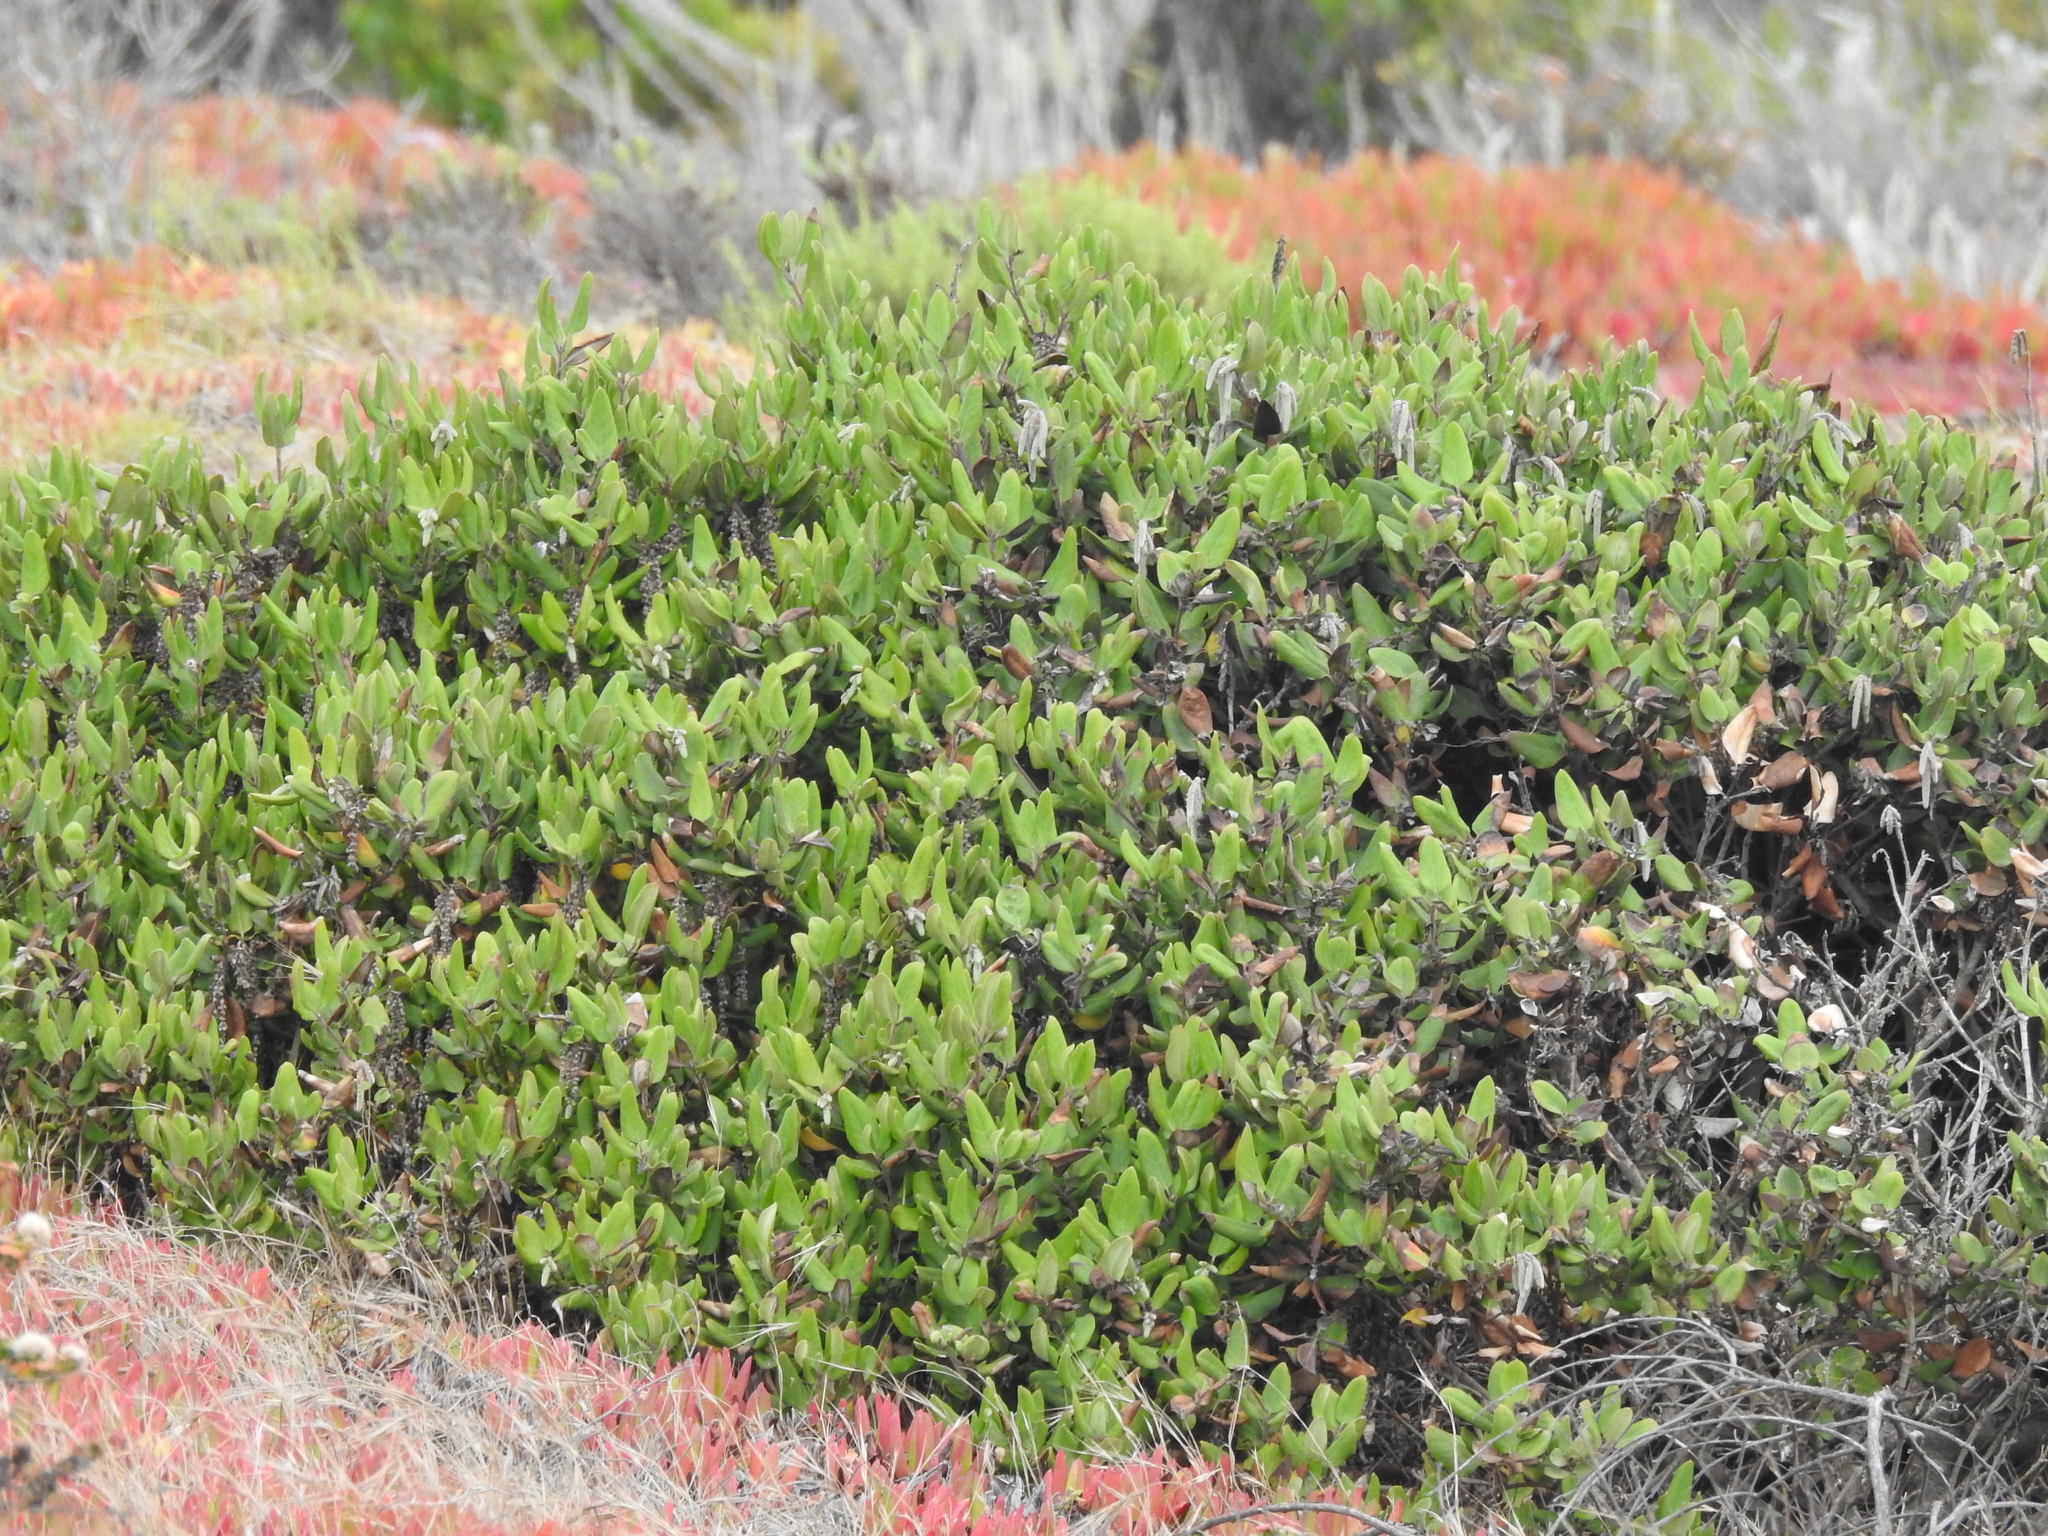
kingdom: Plantae
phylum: Tracheophyta
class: Magnoliopsida
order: Rosales
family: Rhamnaceae
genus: Frangula
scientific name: Frangula californica
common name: California buckthorn
